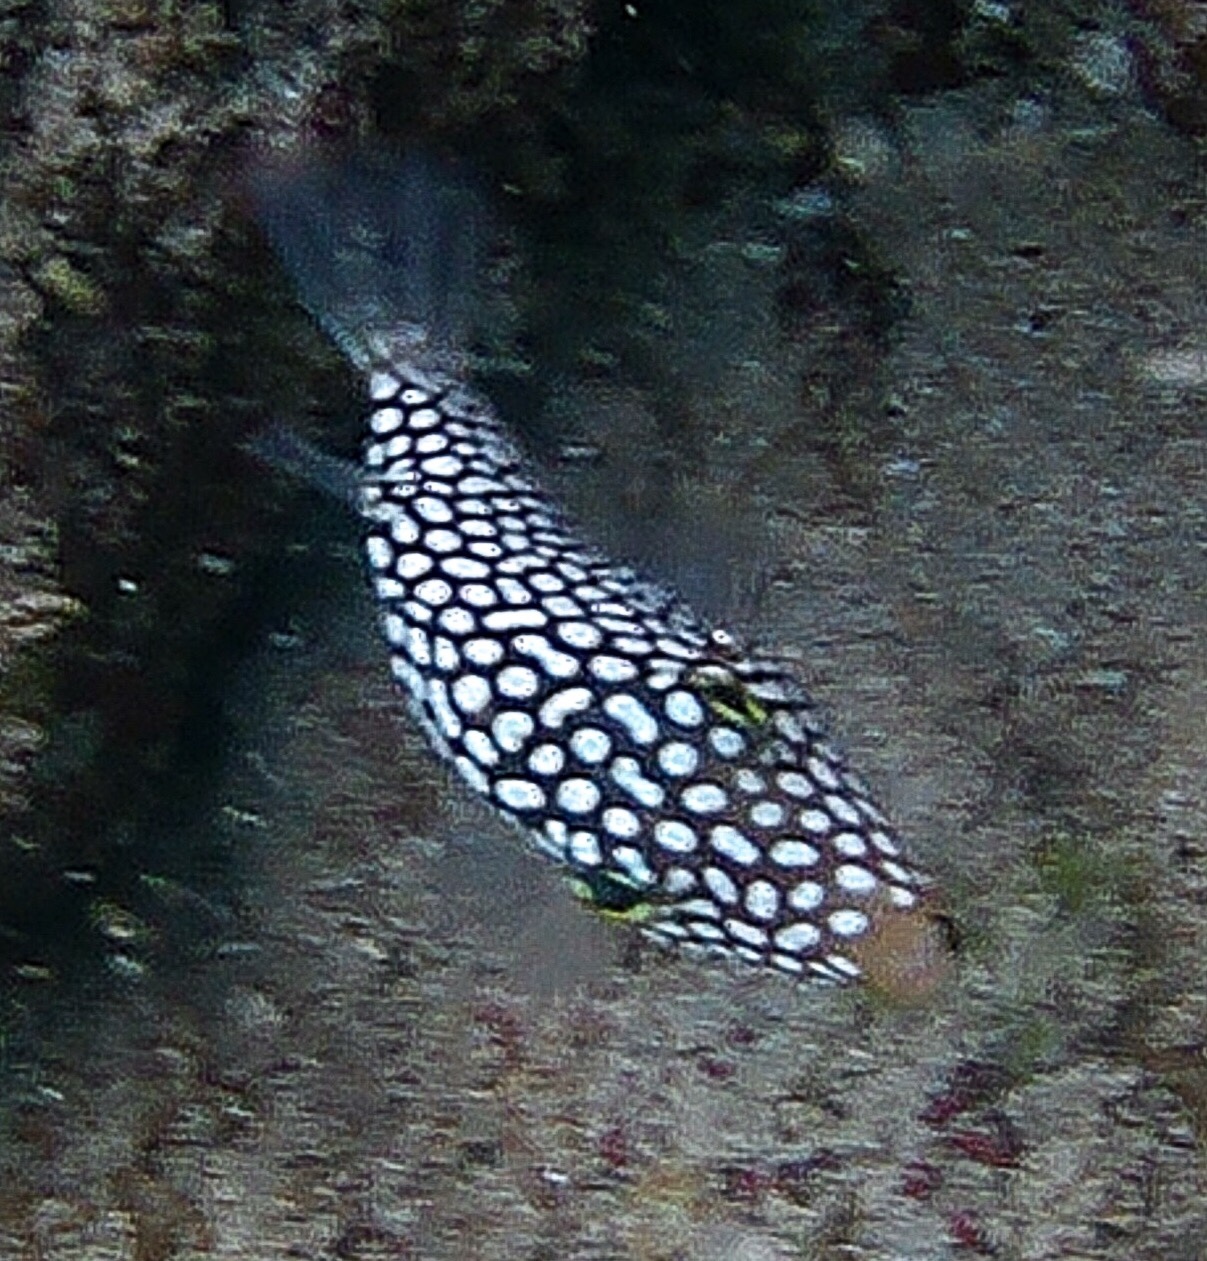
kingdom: Animalia
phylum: Chordata
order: Tetraodontiformes
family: Tetraodontidae
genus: Canthigaster
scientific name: Canthigaster jactator
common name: Hawaiian whitespotted toby
